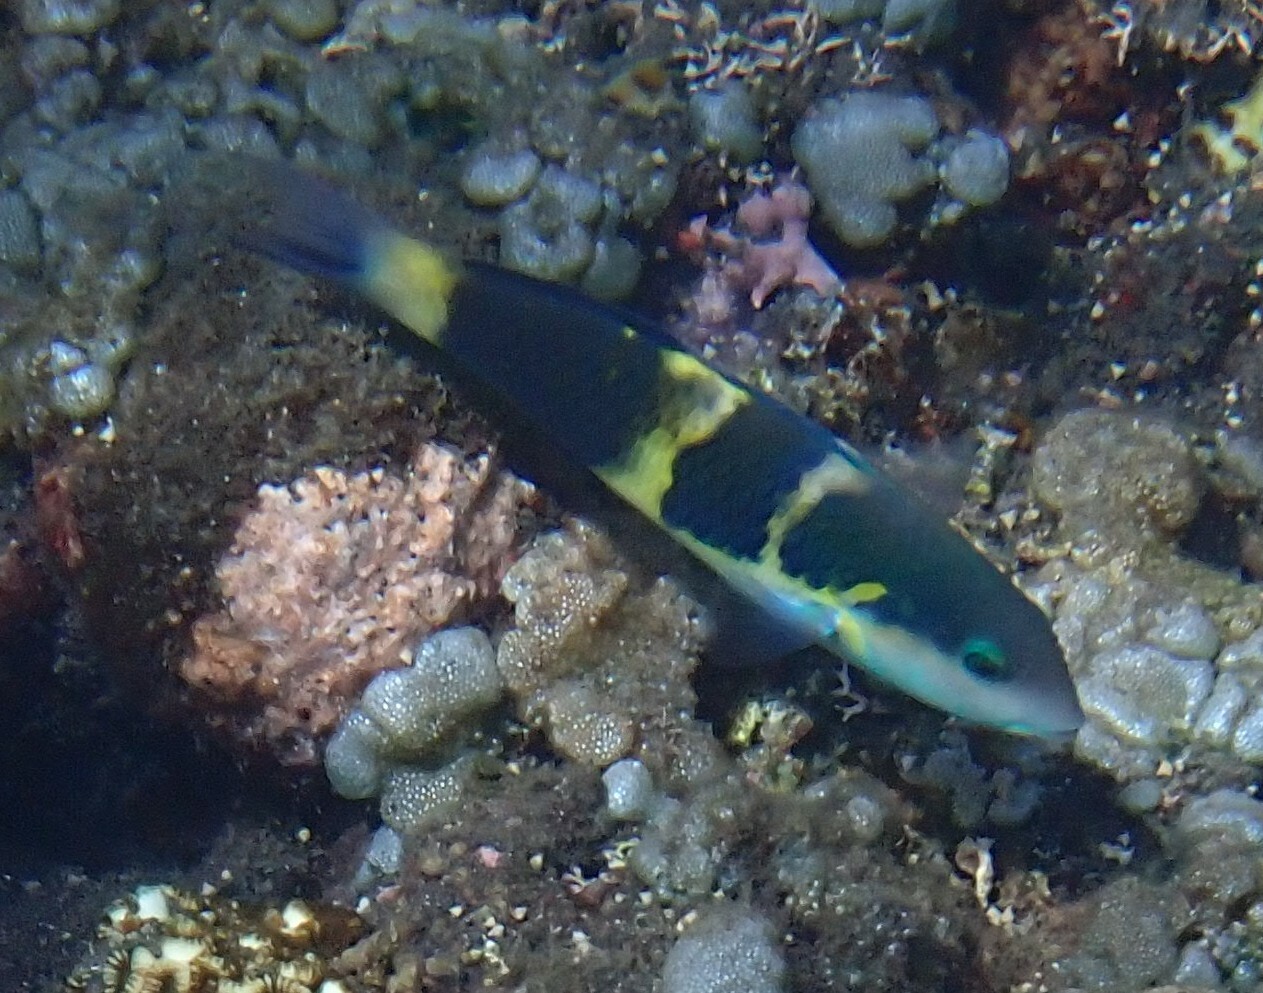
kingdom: Animalia
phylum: Chordata
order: Perciformes
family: Labridae
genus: Thalassoma
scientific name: Thalassoma jansenii
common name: Jansen's wrasse
